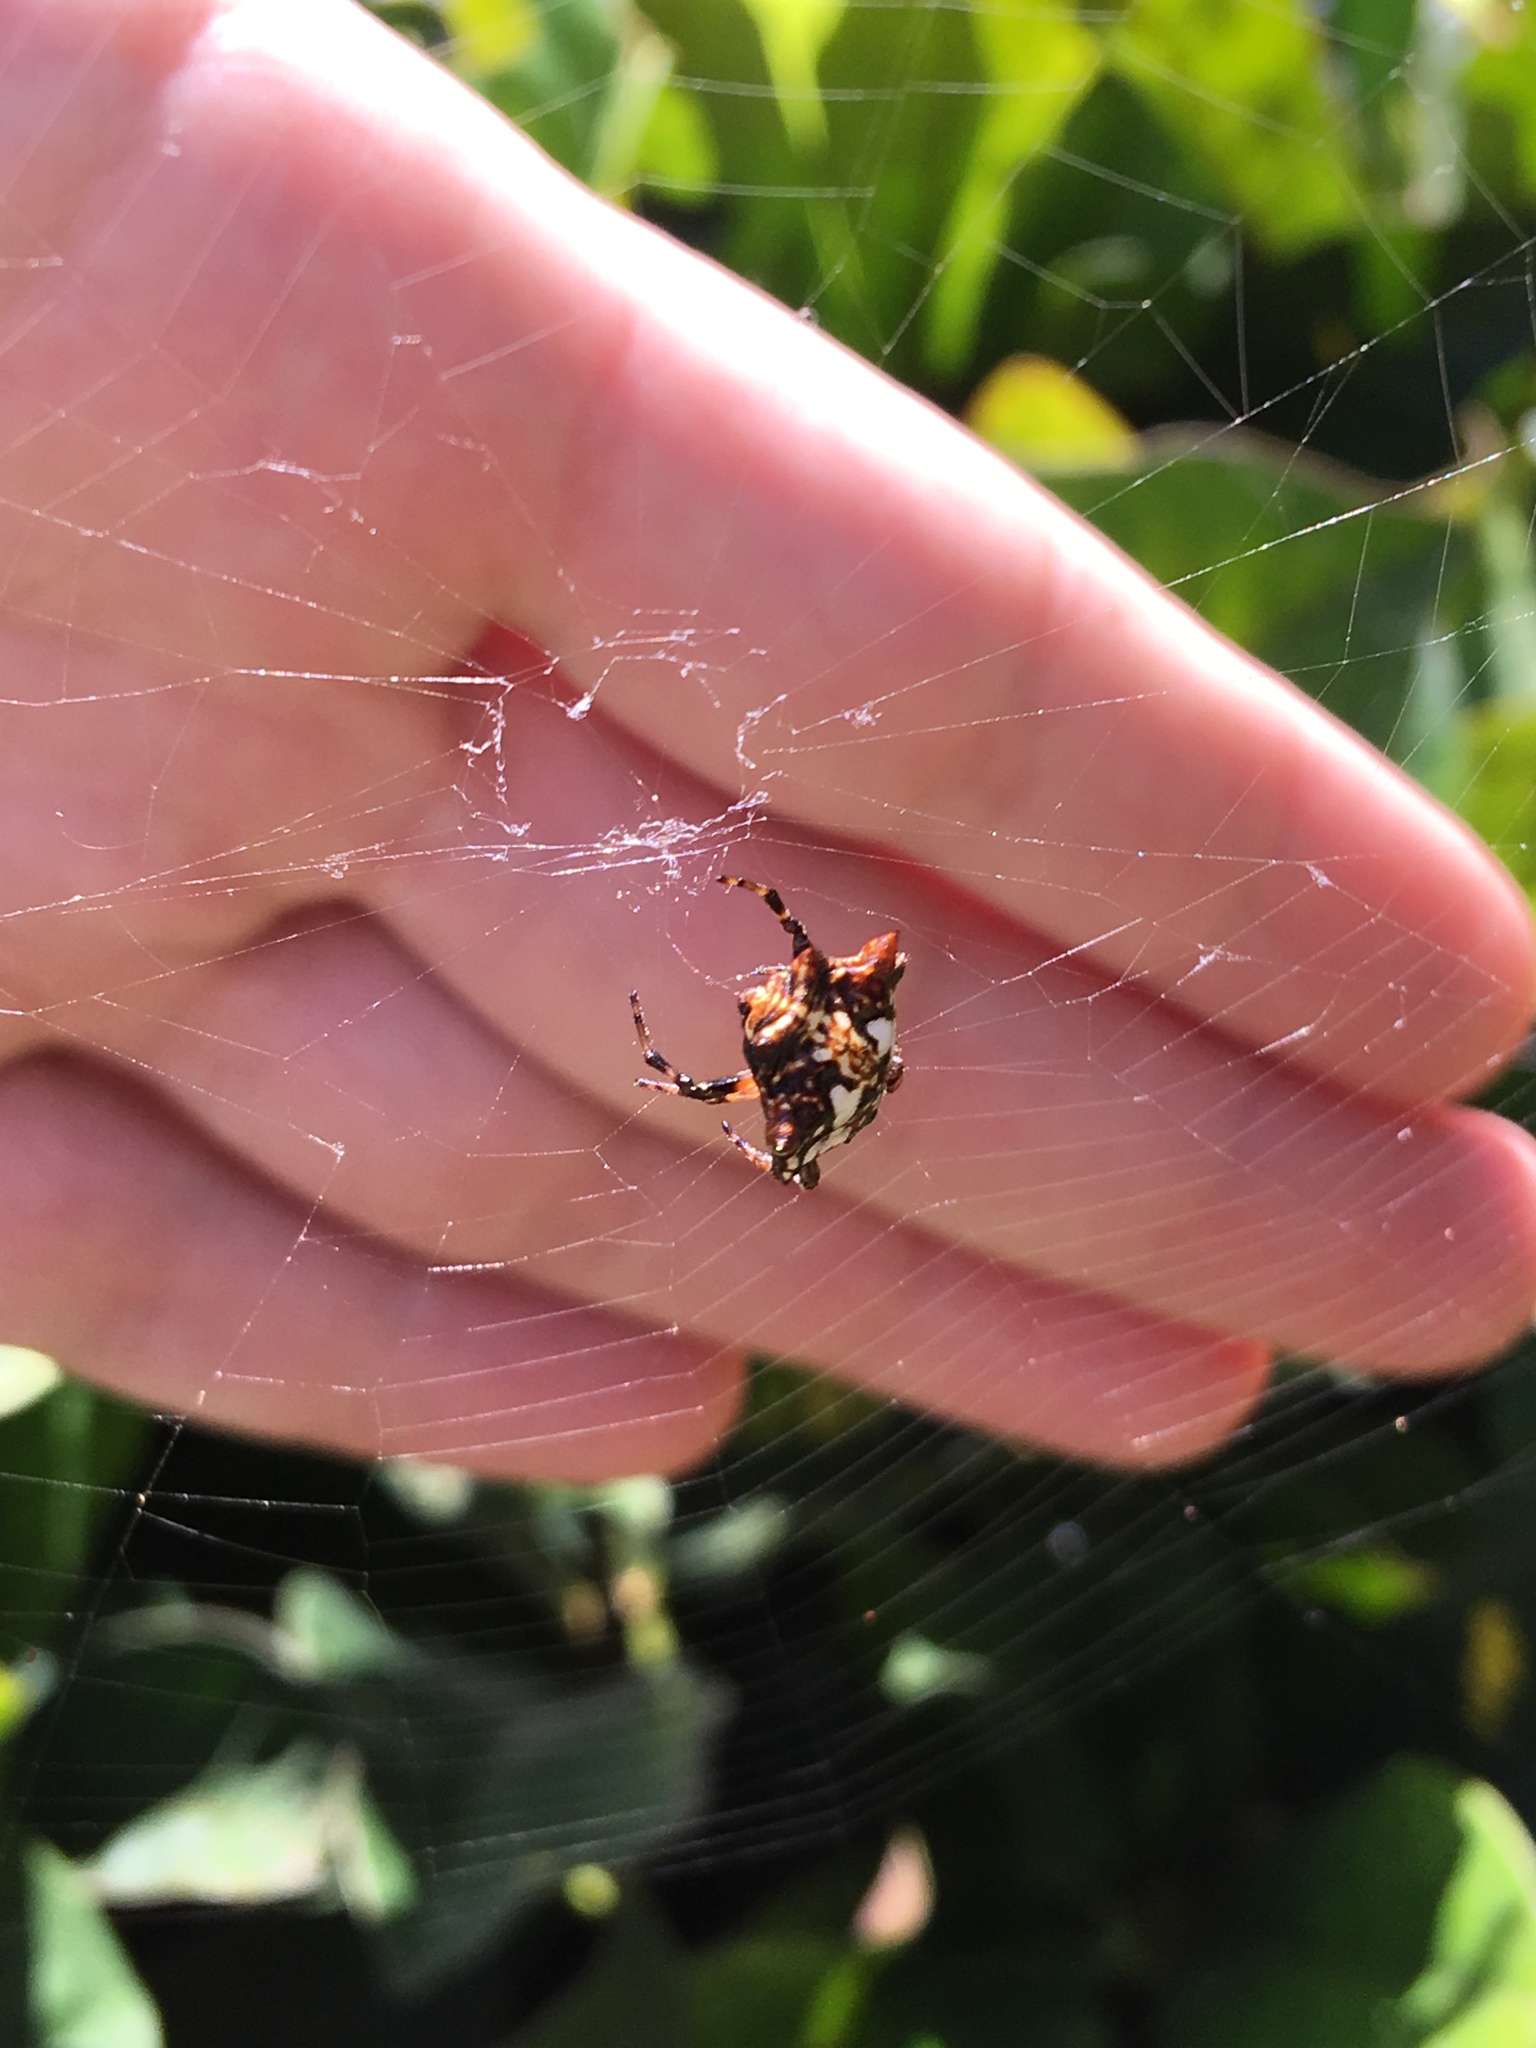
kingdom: Animalia
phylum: Arthropoda
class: Arachnida
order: Araneae
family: Araneidae
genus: Thelacantha
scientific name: Thelacantha brevispina
